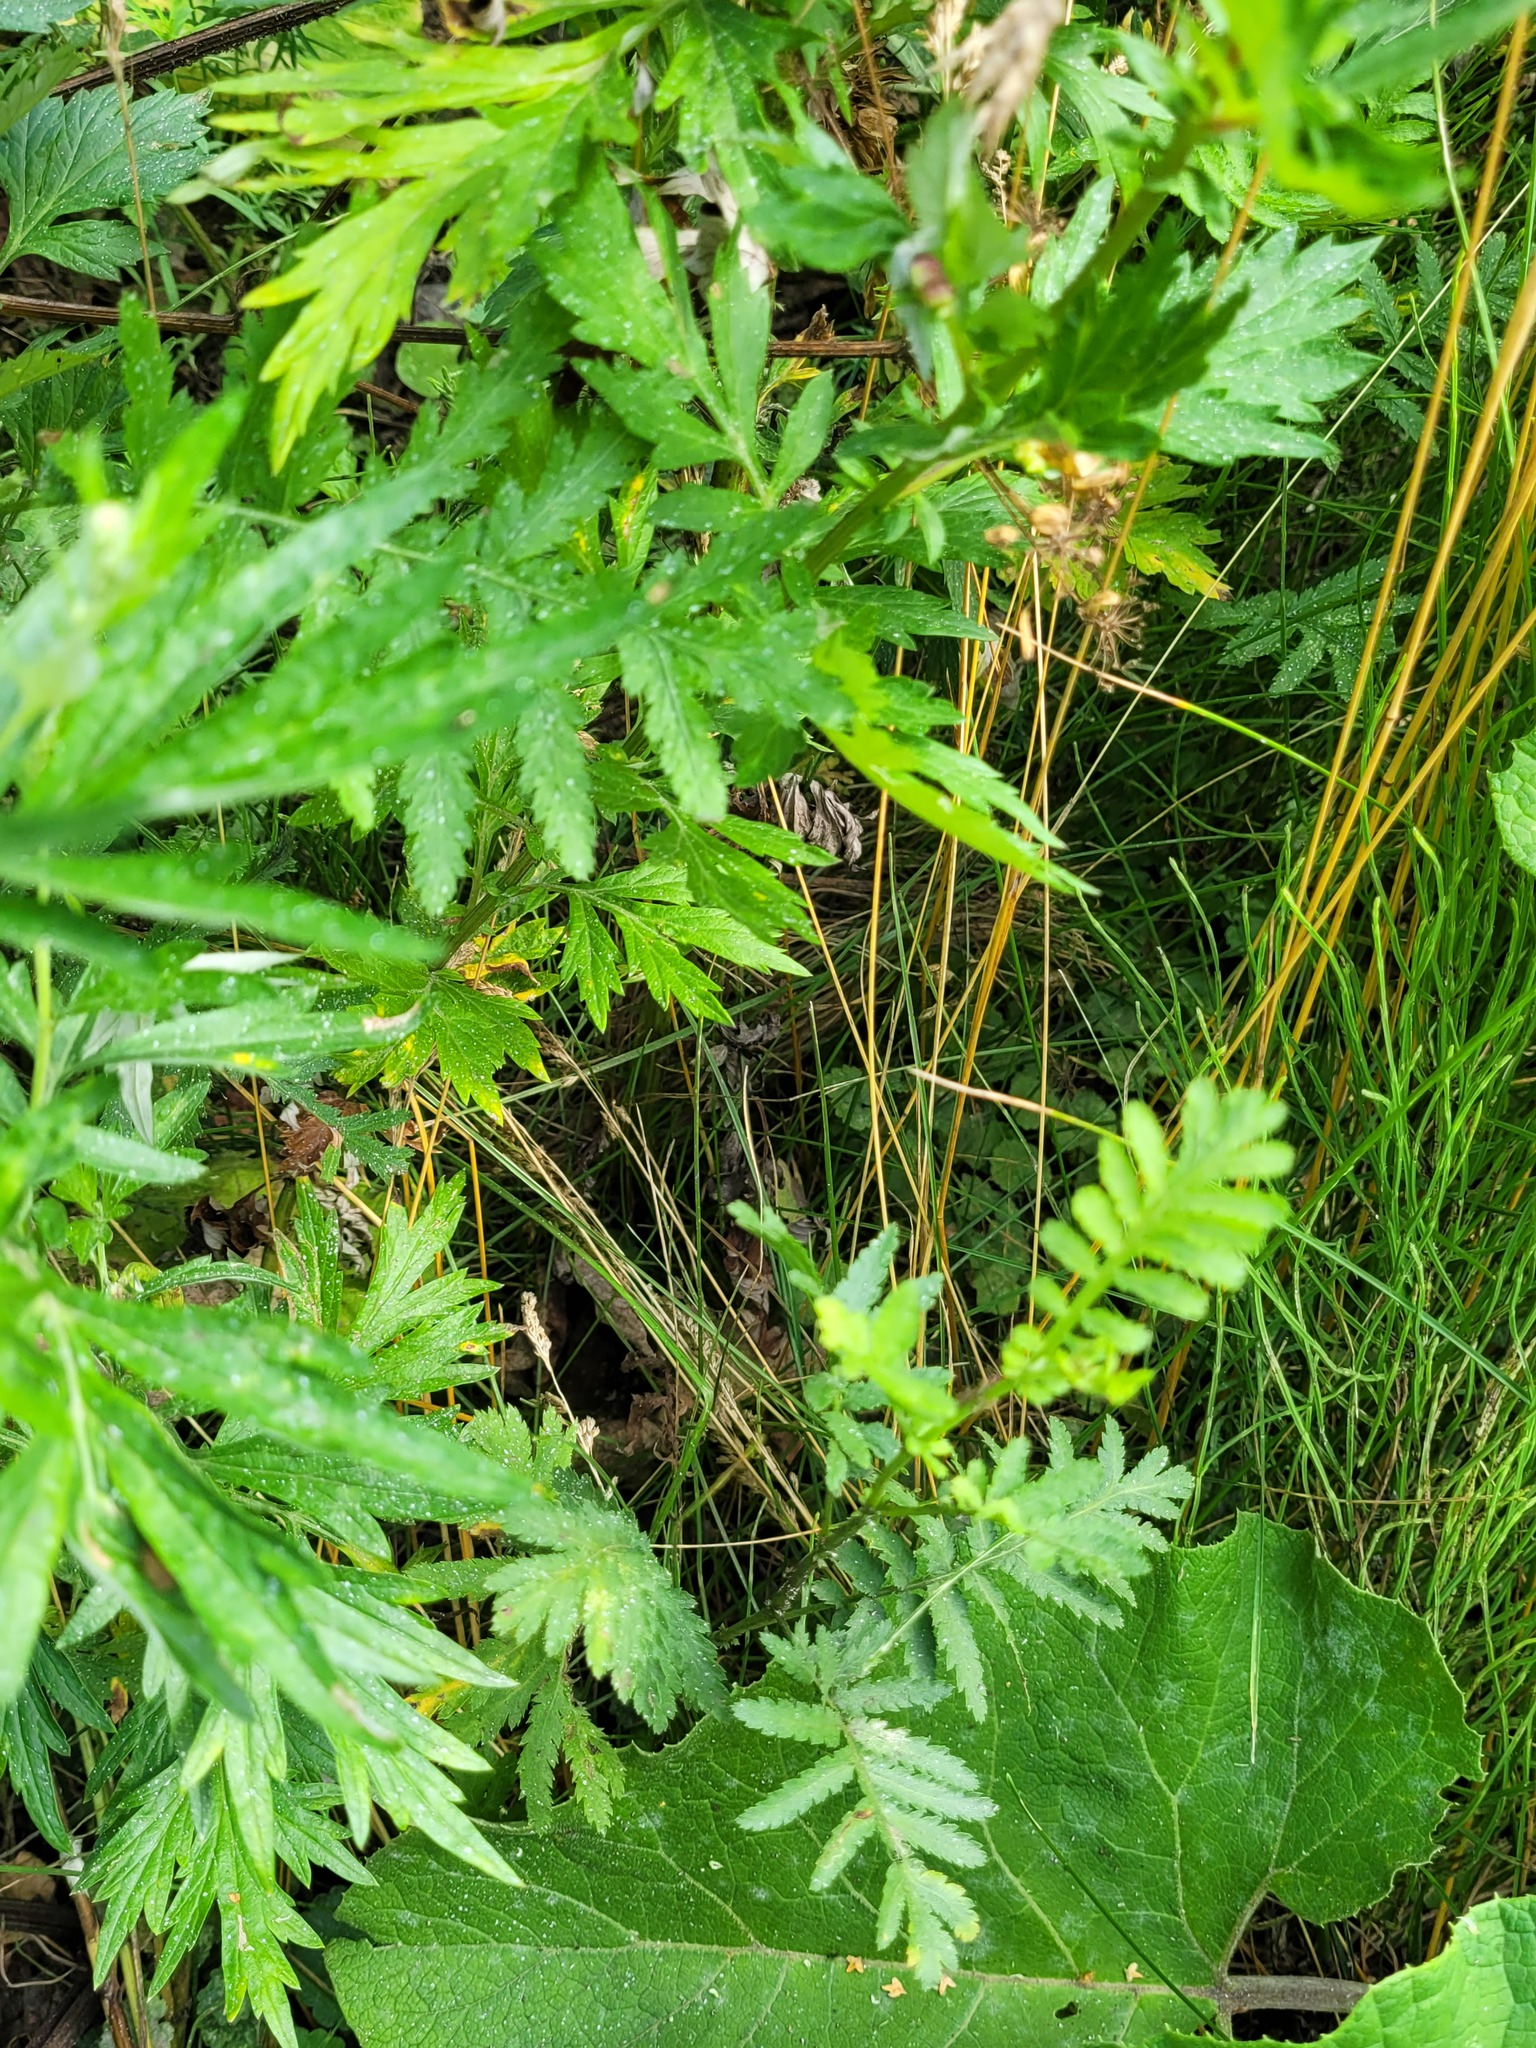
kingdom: Plantae
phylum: Tracheophyta
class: Liliopsida
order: Poales
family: Poaceae
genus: Poa
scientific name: Poa angustifolia
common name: Narrow-leaved meadow-grass
